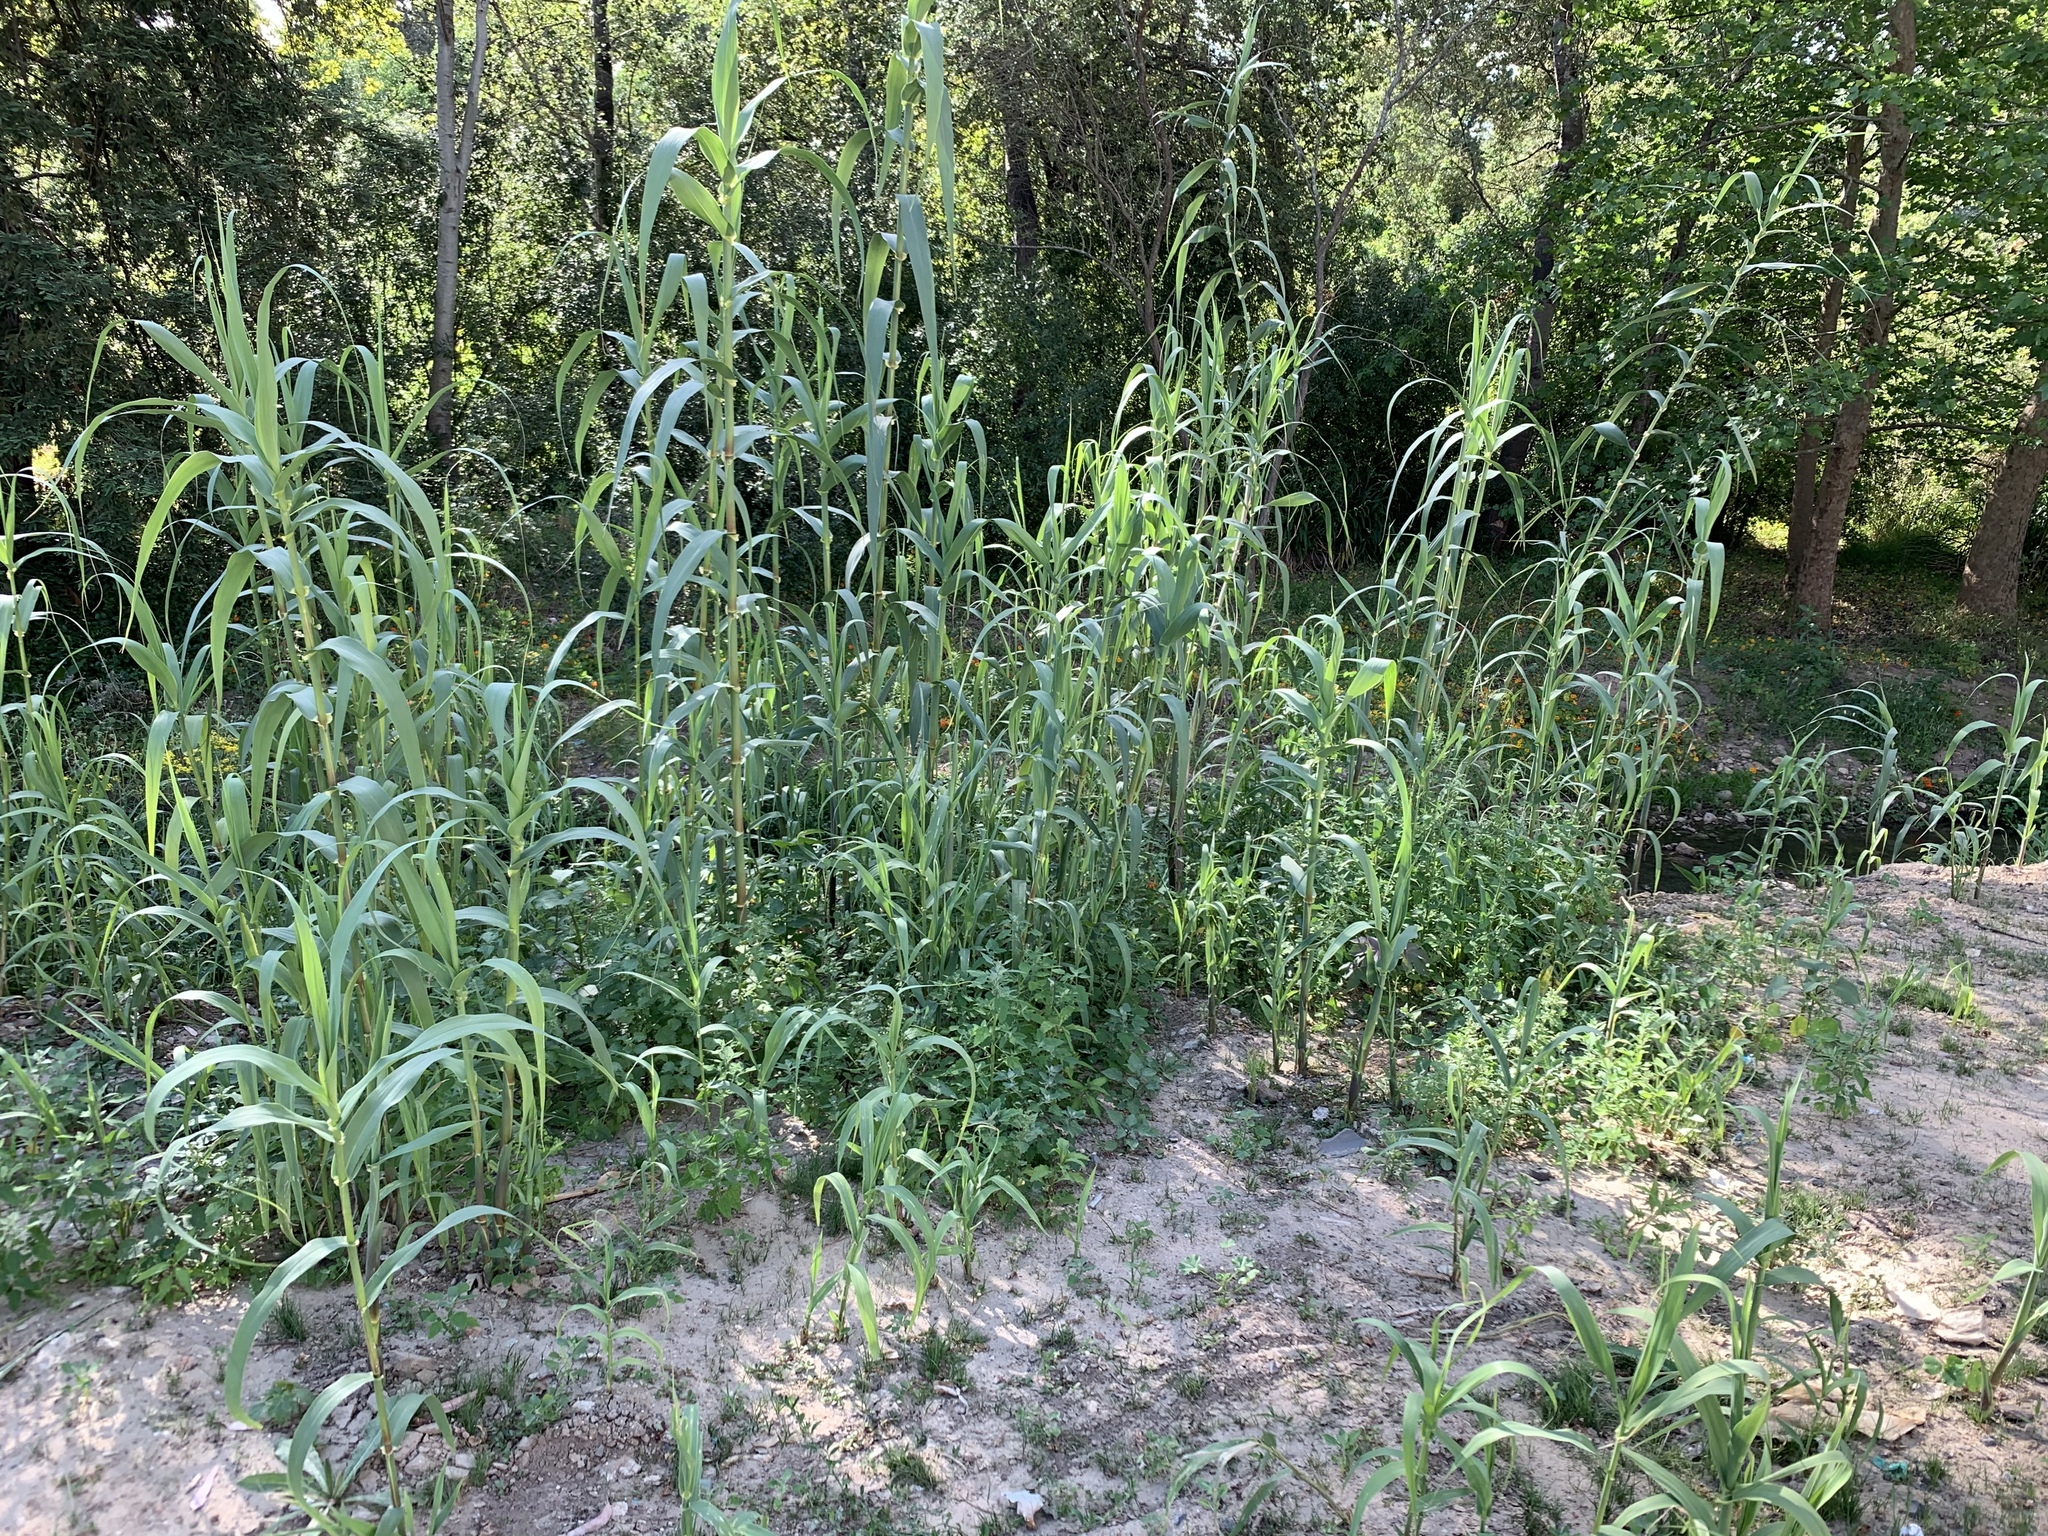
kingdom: Plantae
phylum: Tracheophyta
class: Liliopsida
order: Poales
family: Poaceae
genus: Arundo
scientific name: Arundo donax
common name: Giant reed
